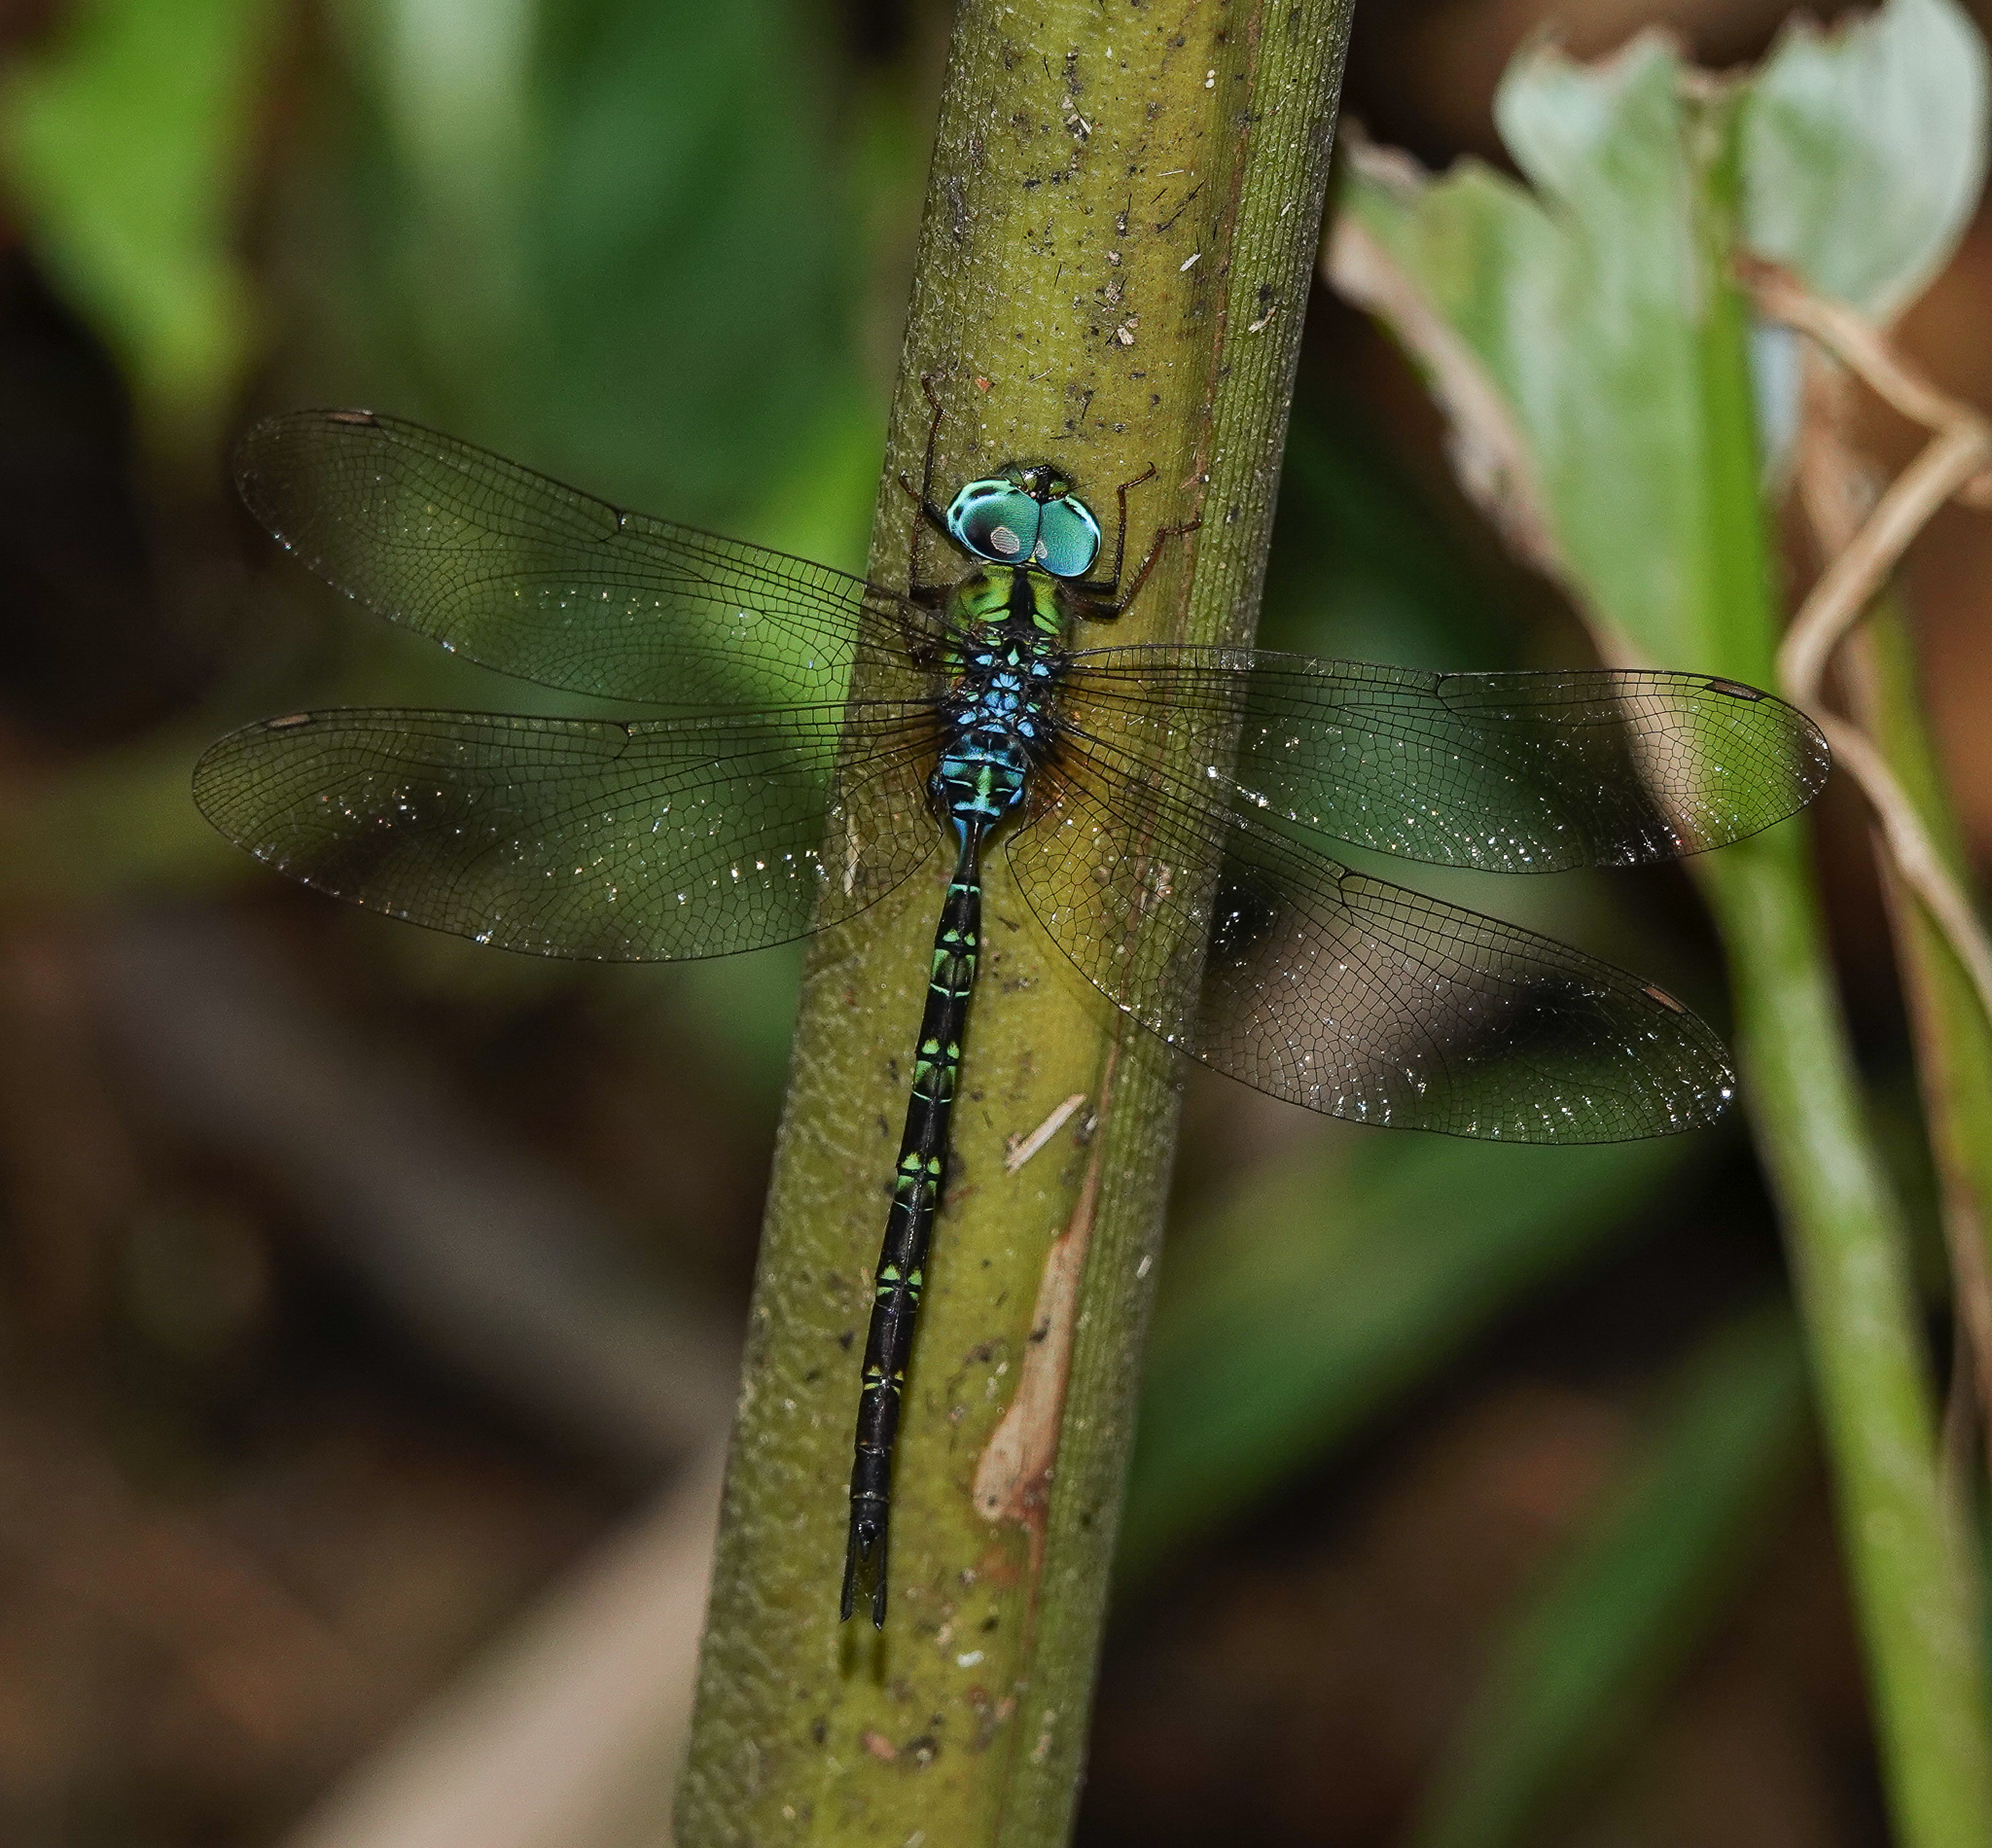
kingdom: Animalia
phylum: Arthropoda
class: Insecta
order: Odonata
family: Aeshnidae
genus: Gynacantha
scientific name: Gynacantha subinterrupta
